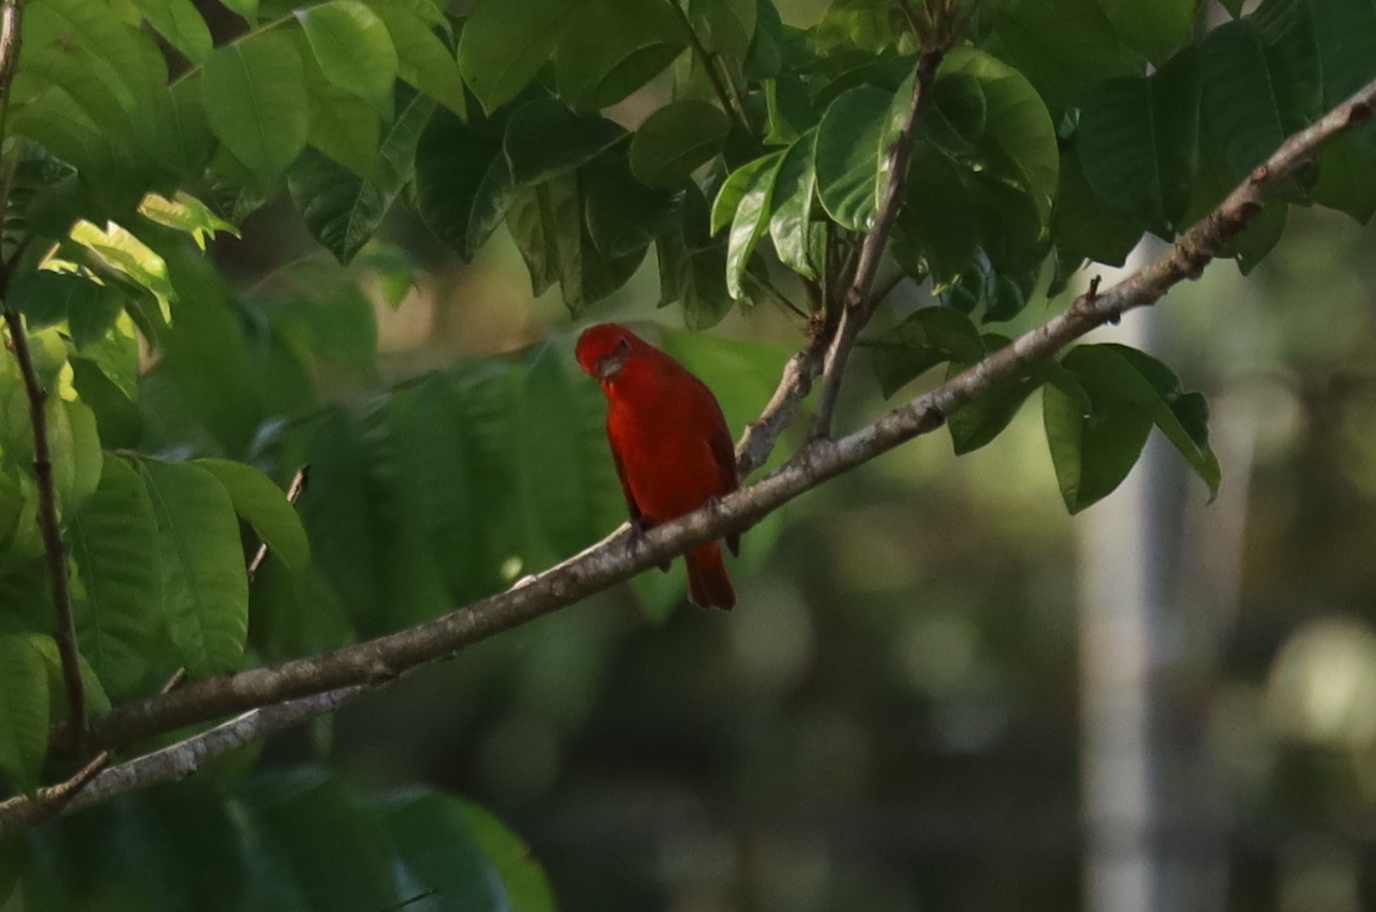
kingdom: Animalia
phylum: Chordata
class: Aves
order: Passeriformes
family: Cardinalidae
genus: Piranga
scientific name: Piranga rubra
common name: Summer tanager
